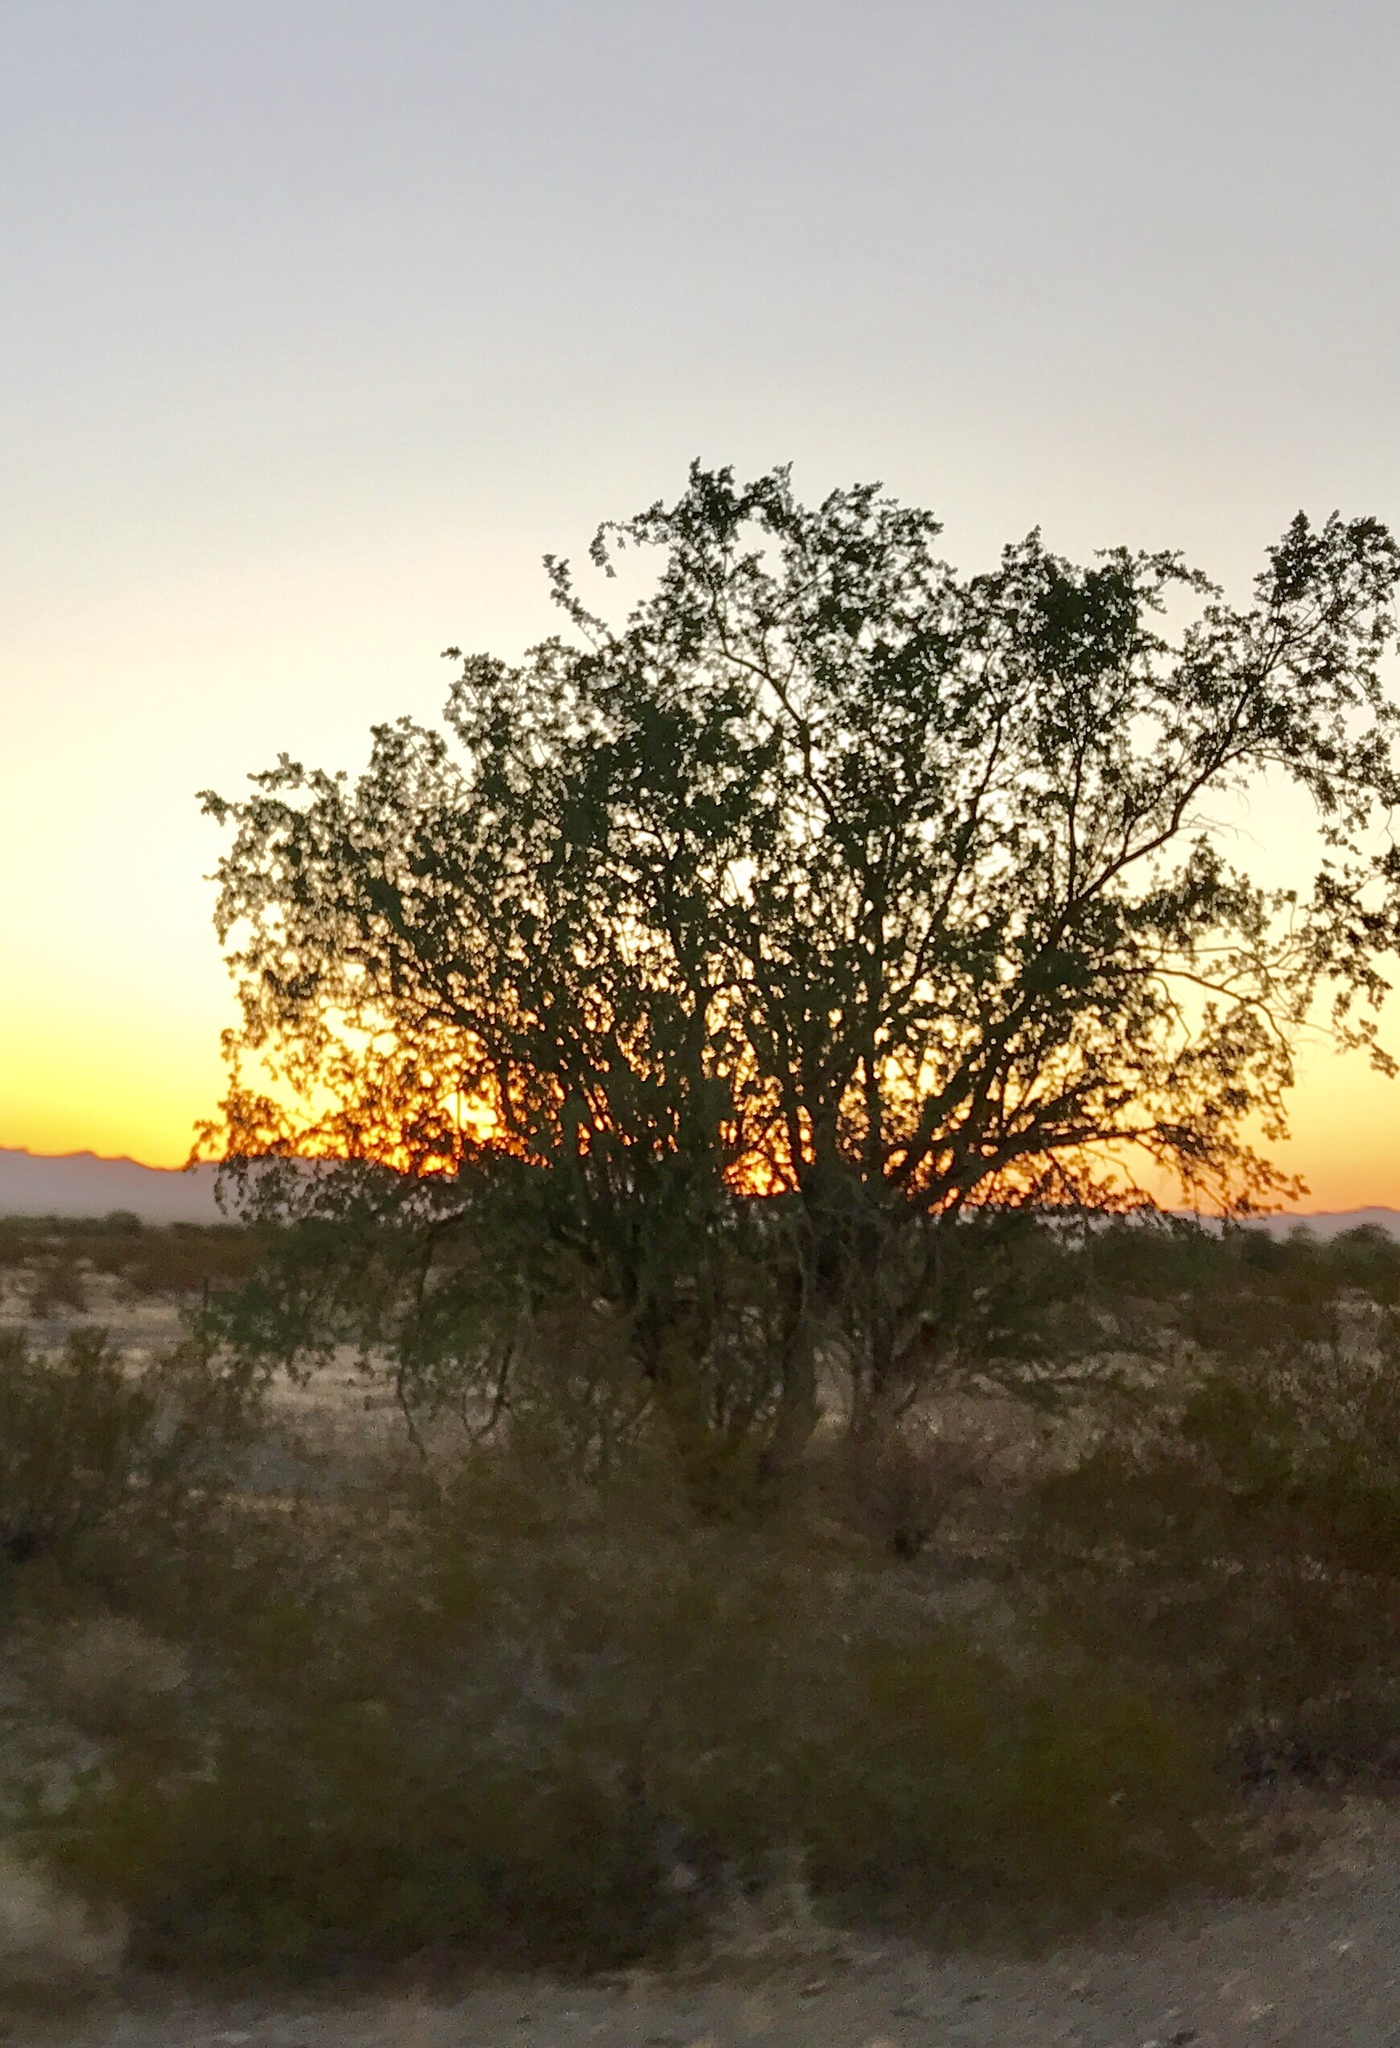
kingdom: Plantae
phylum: Tracheophyta
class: Magnoliopsida
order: Fabales
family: Fabaceae
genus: Olneya
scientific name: Olneya tesota
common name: Desert ironwood
